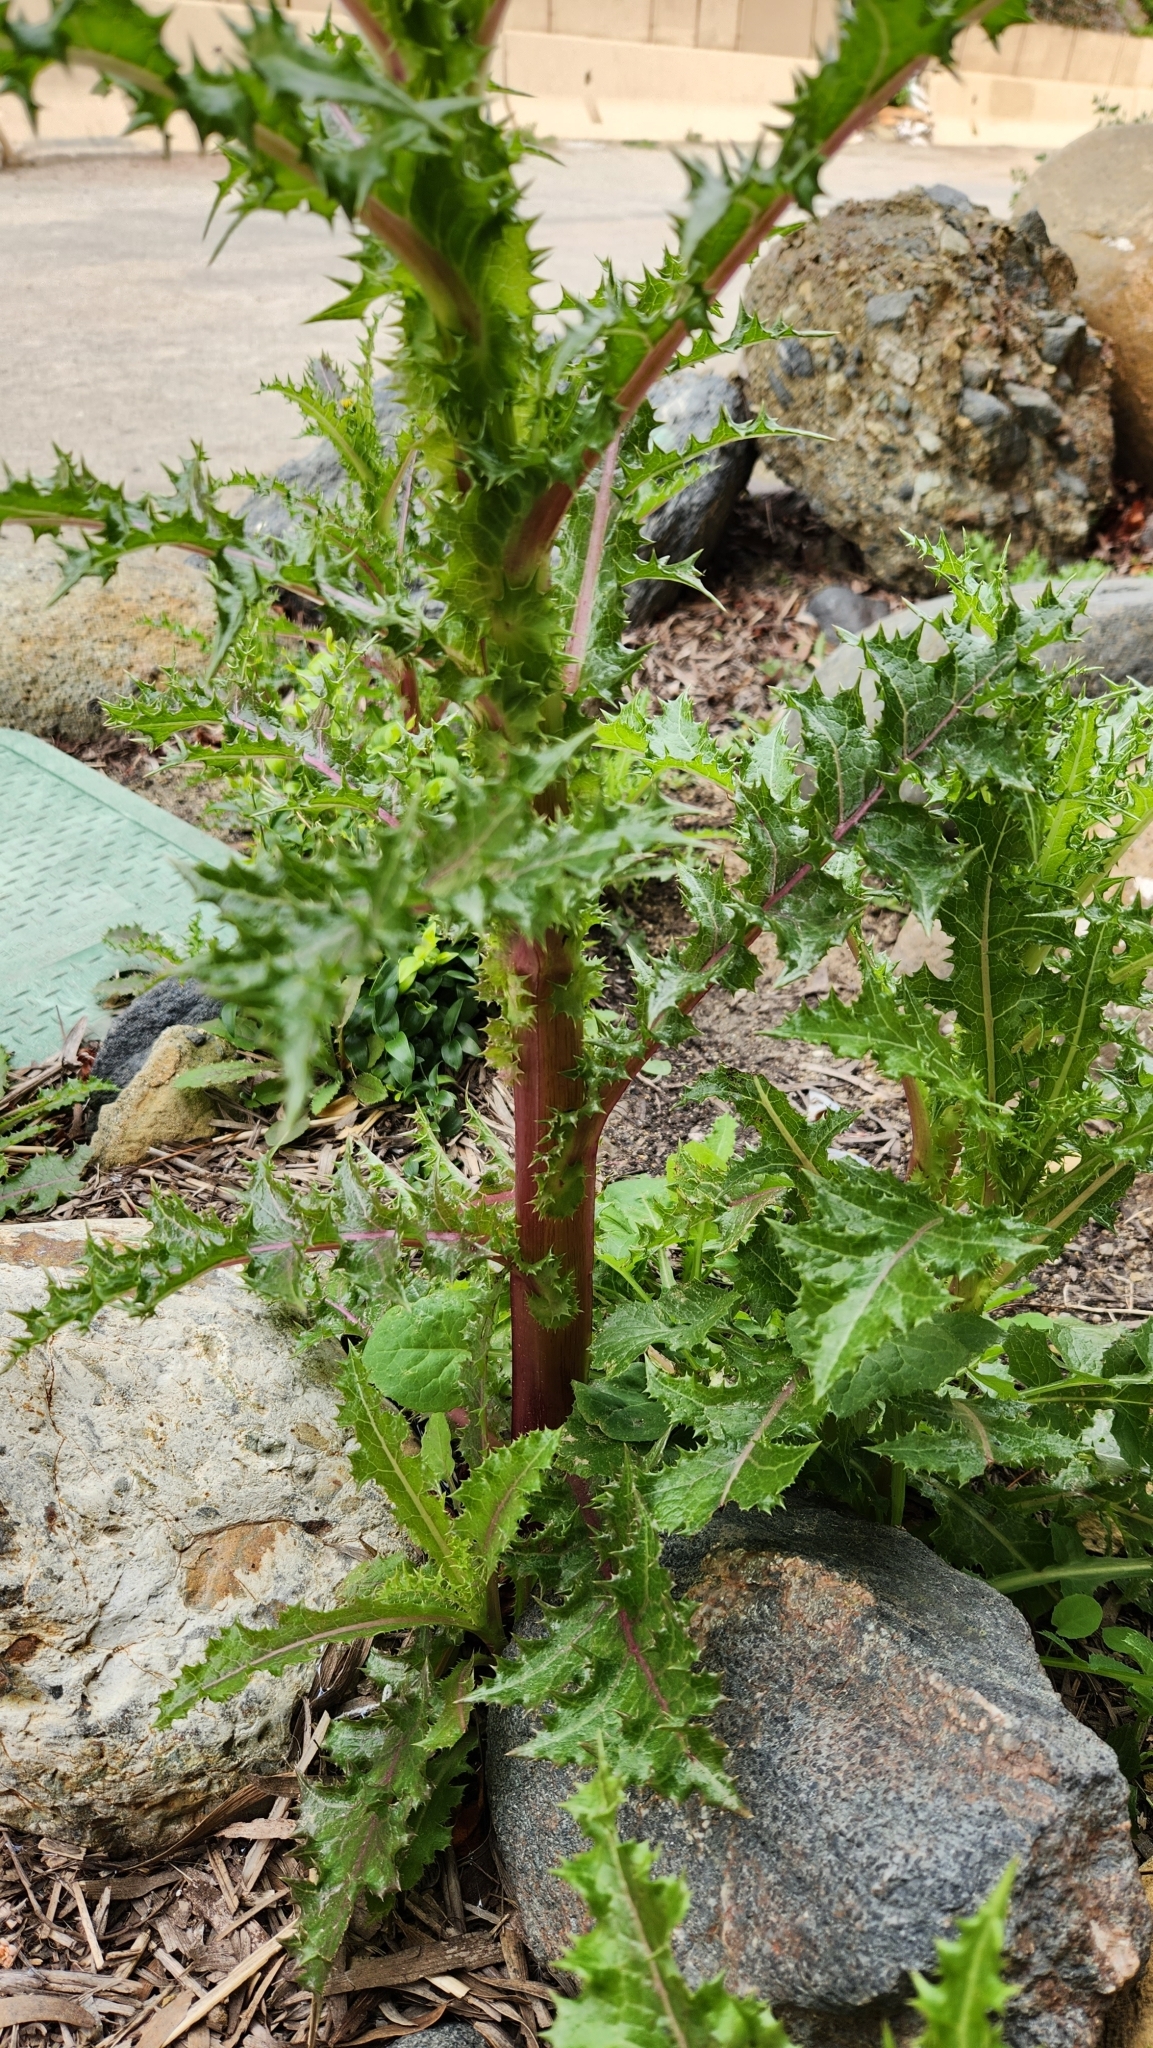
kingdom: Plantae
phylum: Tracheophyta
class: Magnoliopsida
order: Asterales
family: Asteraceae
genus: Sonchus
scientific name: Sonchus asper
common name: Prickly sow-thistle
